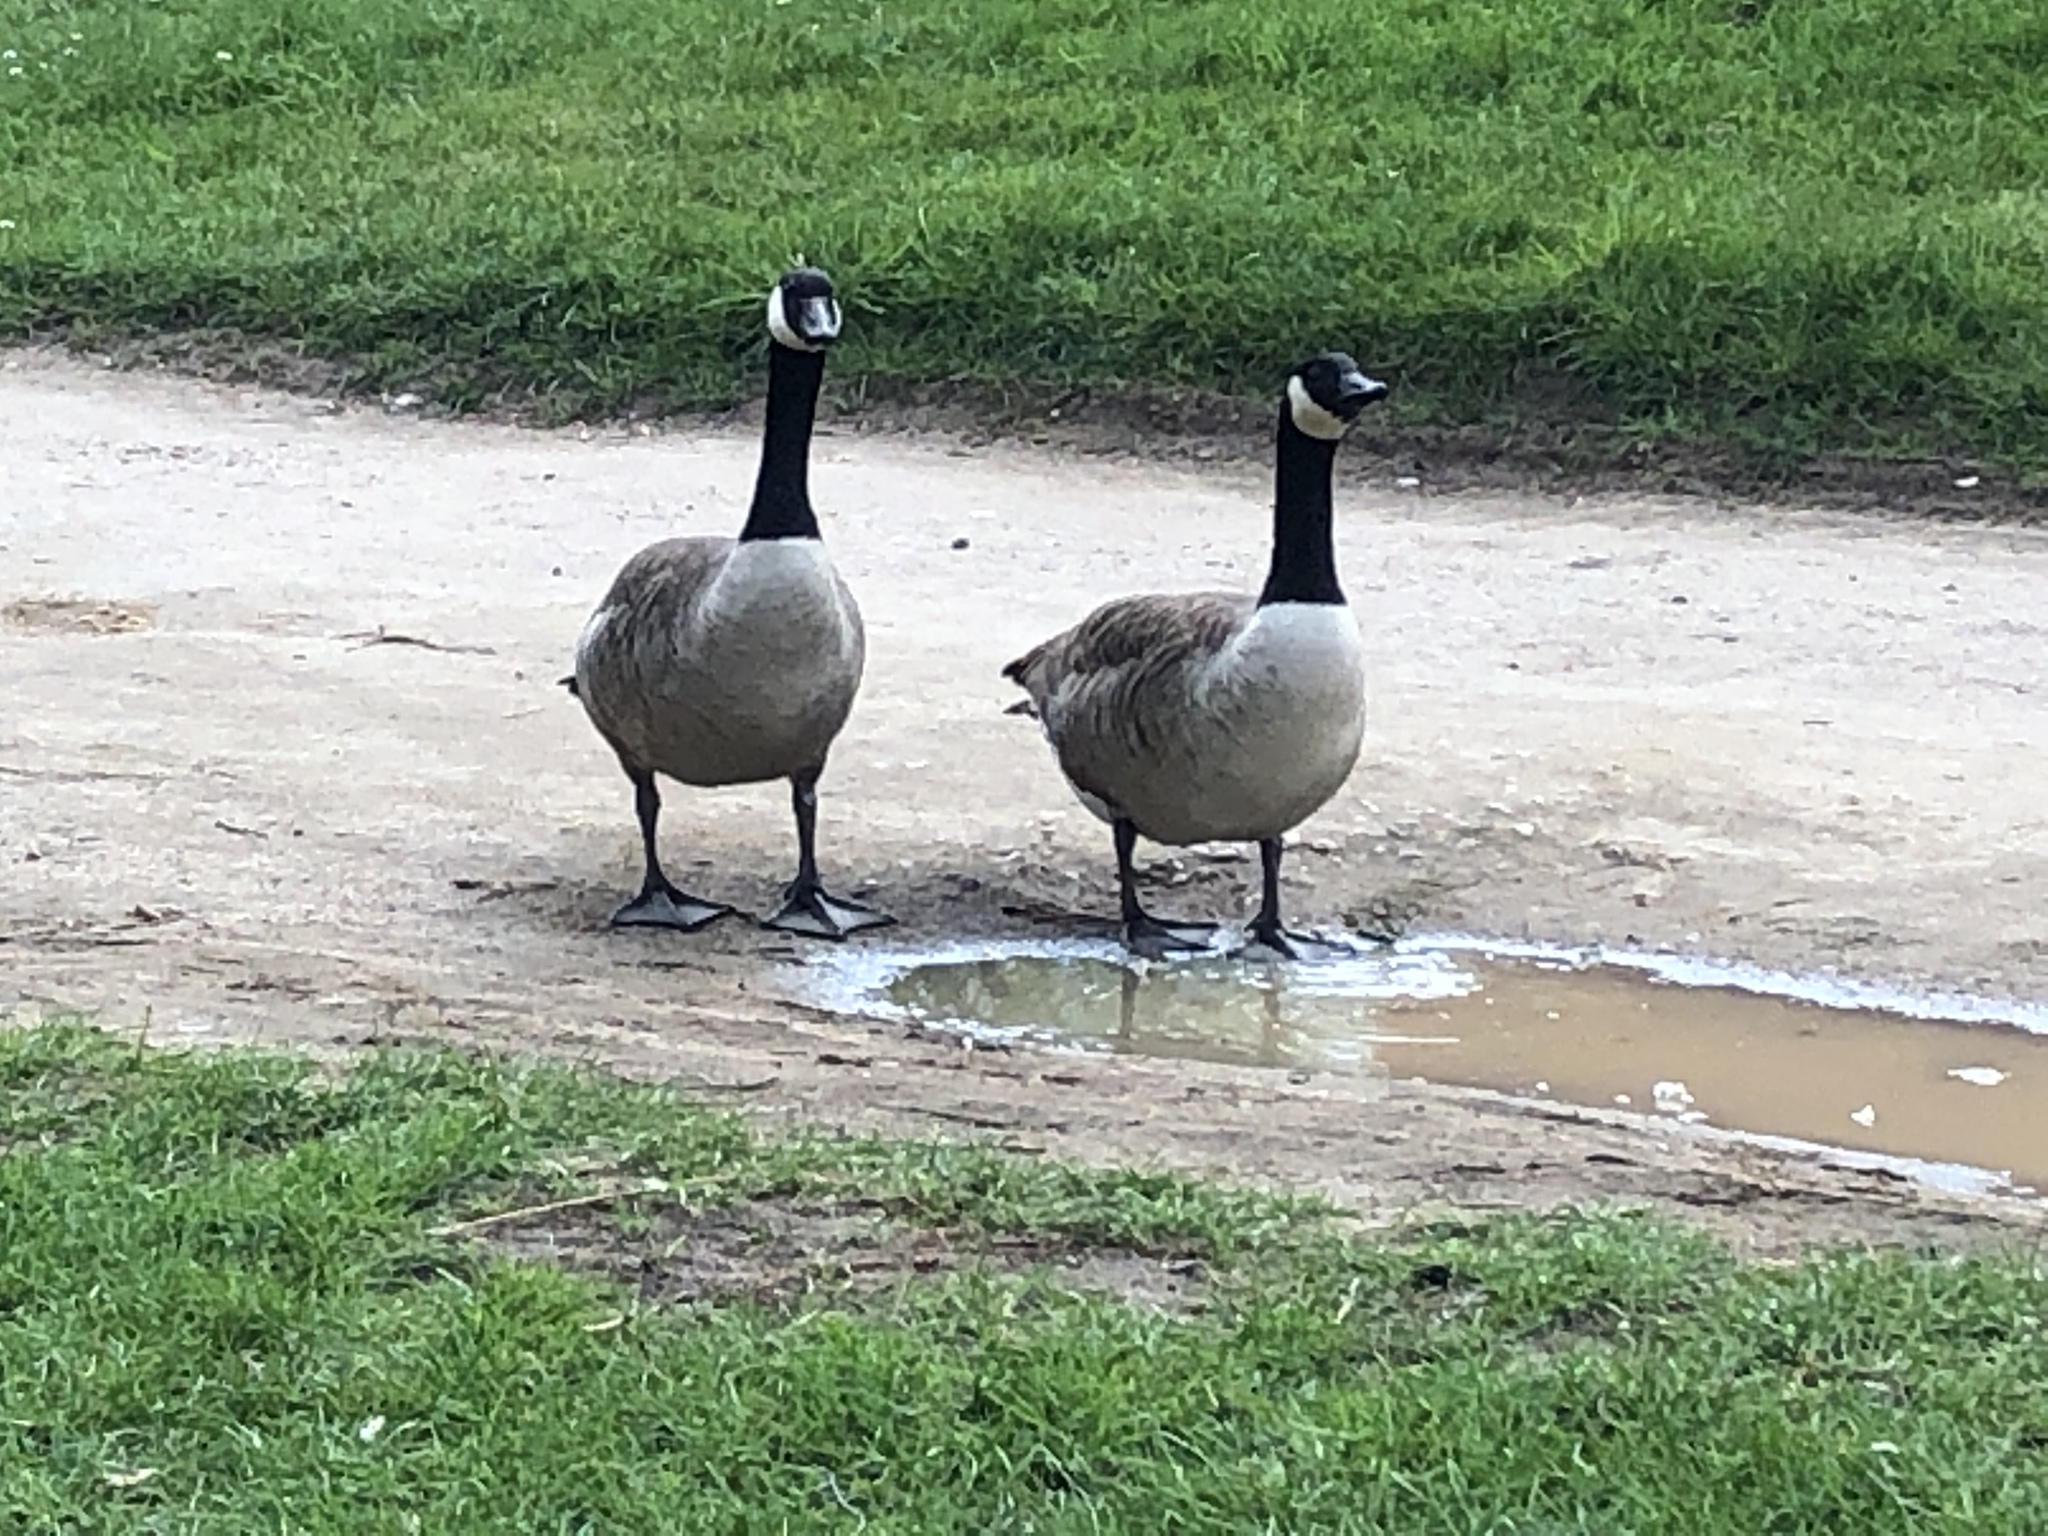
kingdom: Animalia
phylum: Chordata
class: Aves
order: Anseriformes
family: Anatidae
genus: Branta
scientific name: Branta canadensis
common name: Canada goose
